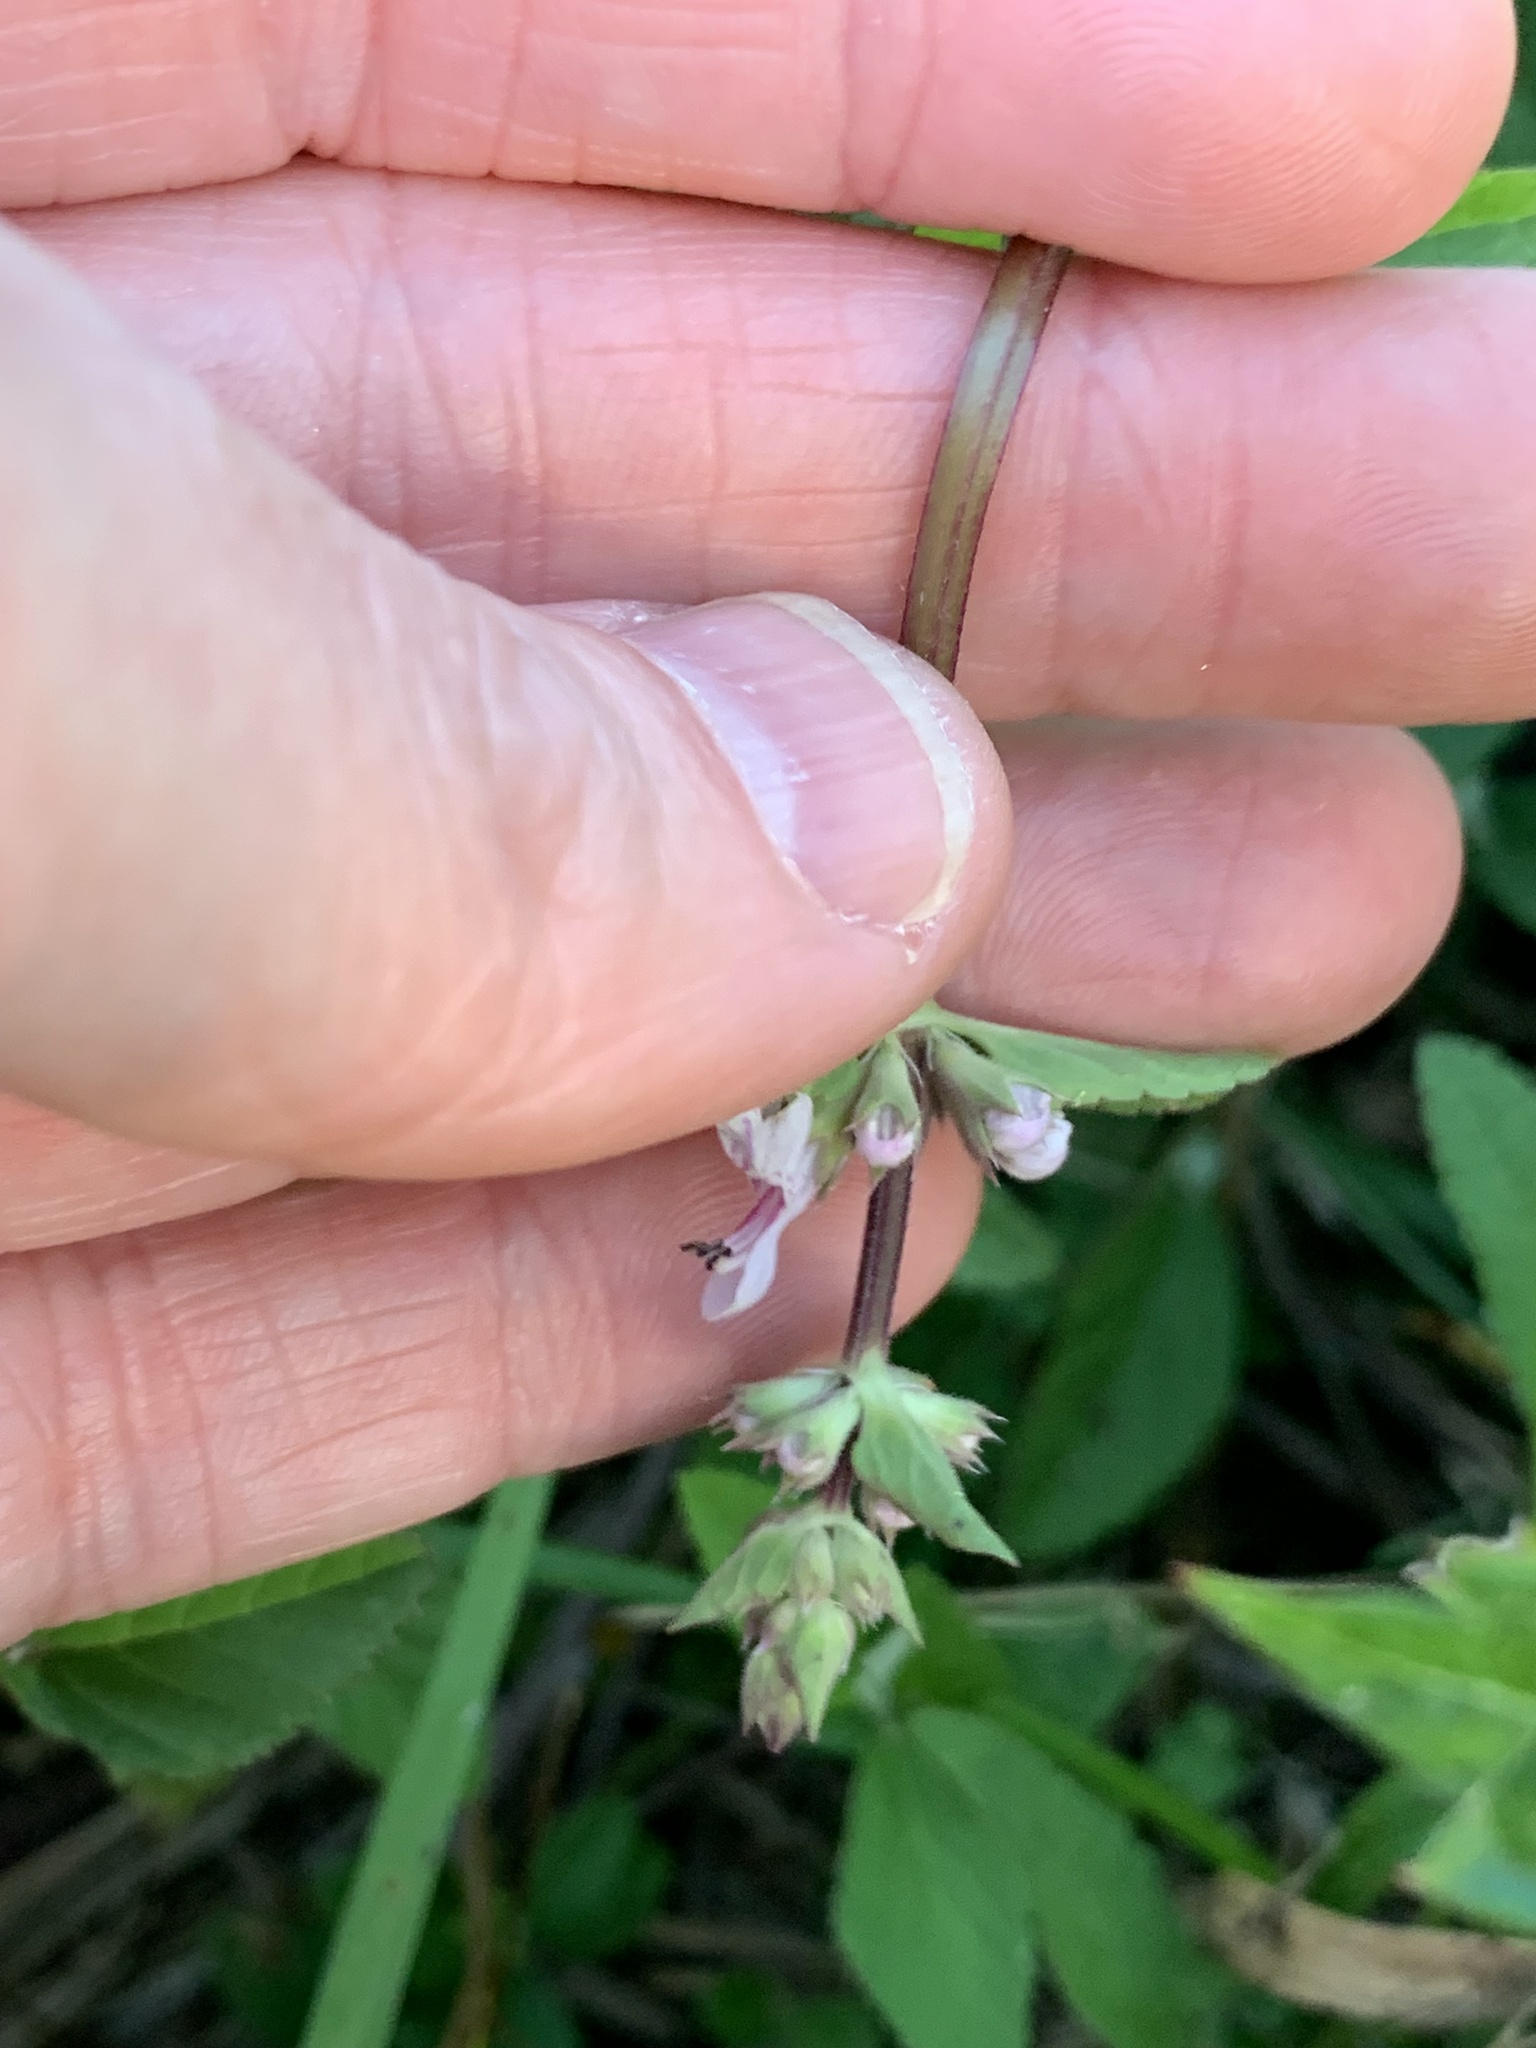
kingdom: Plantae
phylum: Tracheophyta
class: Magnoliopsida
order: Lamiales
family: Lamiaceae
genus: Stachys
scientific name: Stachys floridana
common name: Florida betony
